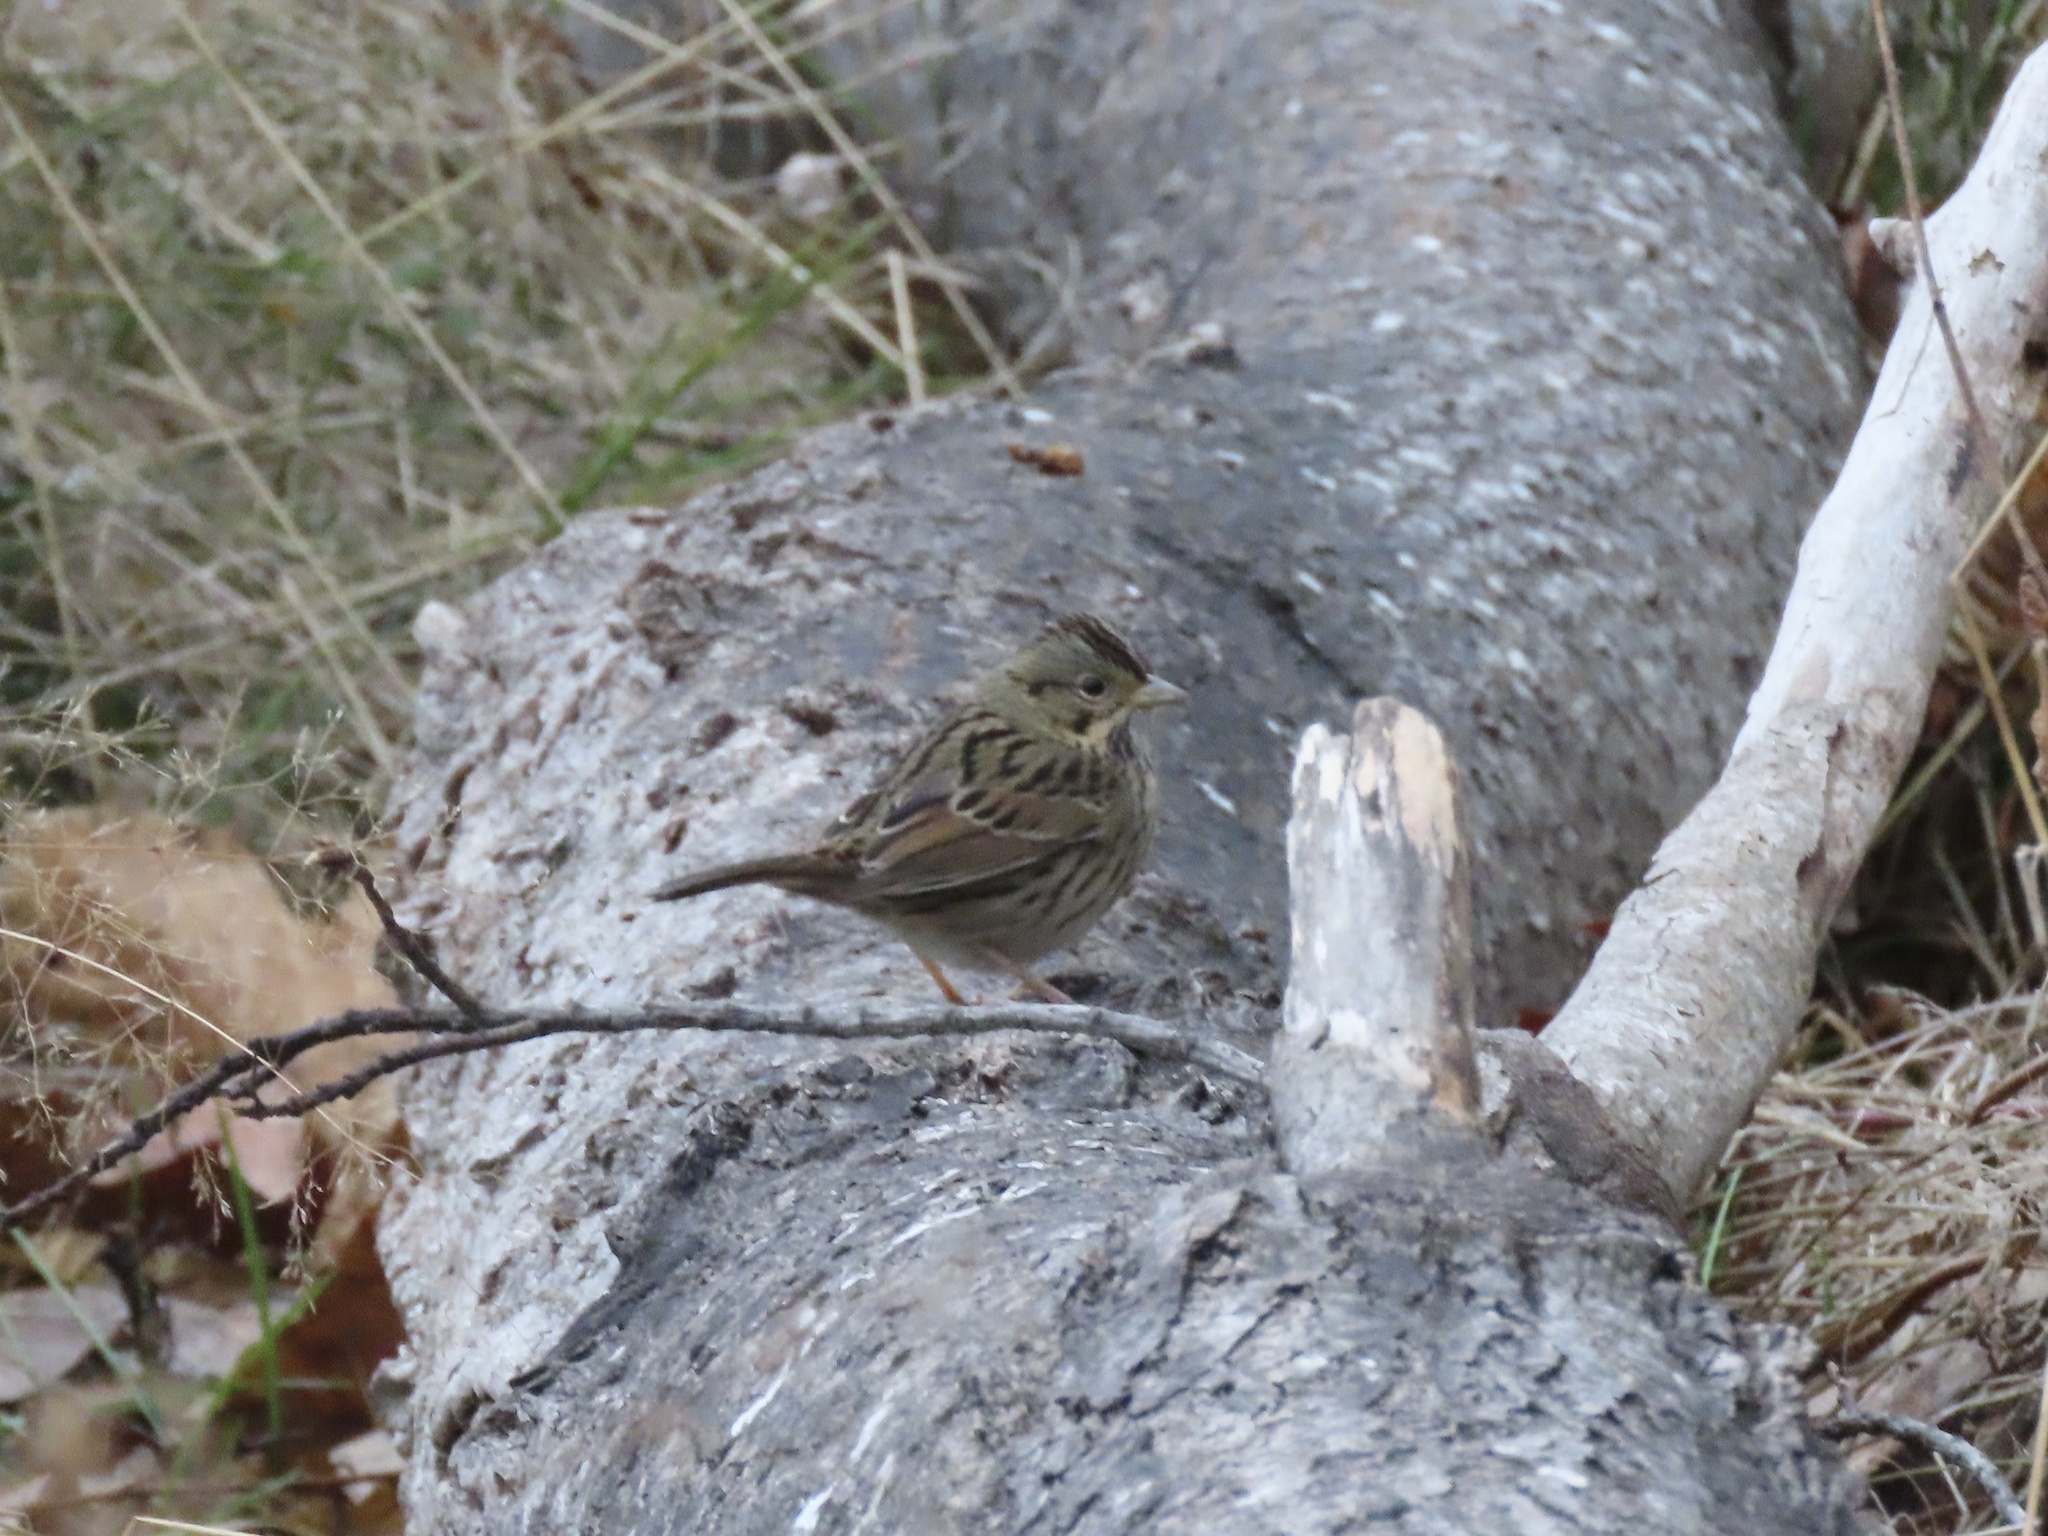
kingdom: Animalia
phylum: Chordata
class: Aves
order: Passeriformes
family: Passerellidae
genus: Melospiza
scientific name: Melospiza lincolnii
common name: Lincoln's sparrow
